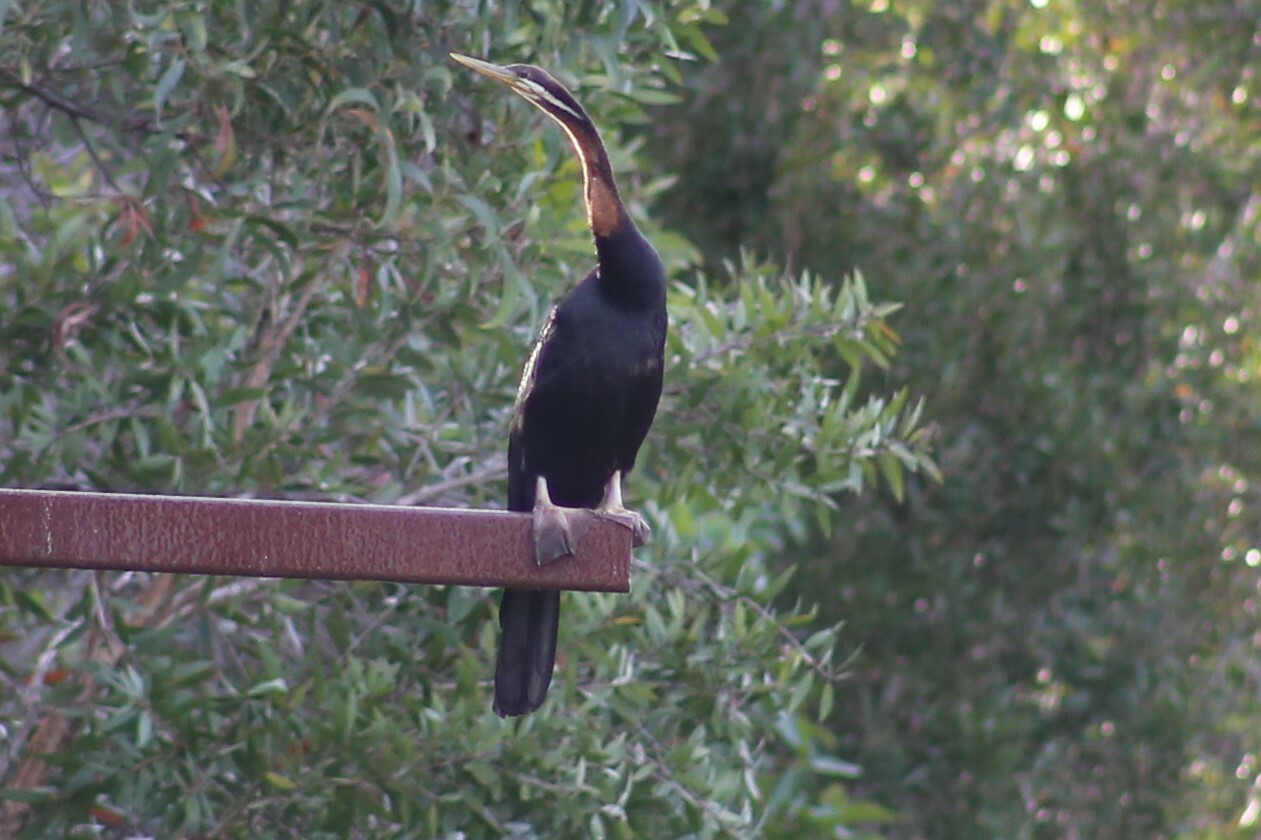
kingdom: Animalia
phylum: Chordata
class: Aves
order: Suliformes
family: Anhingidae
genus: Anhinga
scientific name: Anhinga novaehollandiae
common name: Australasian darter
